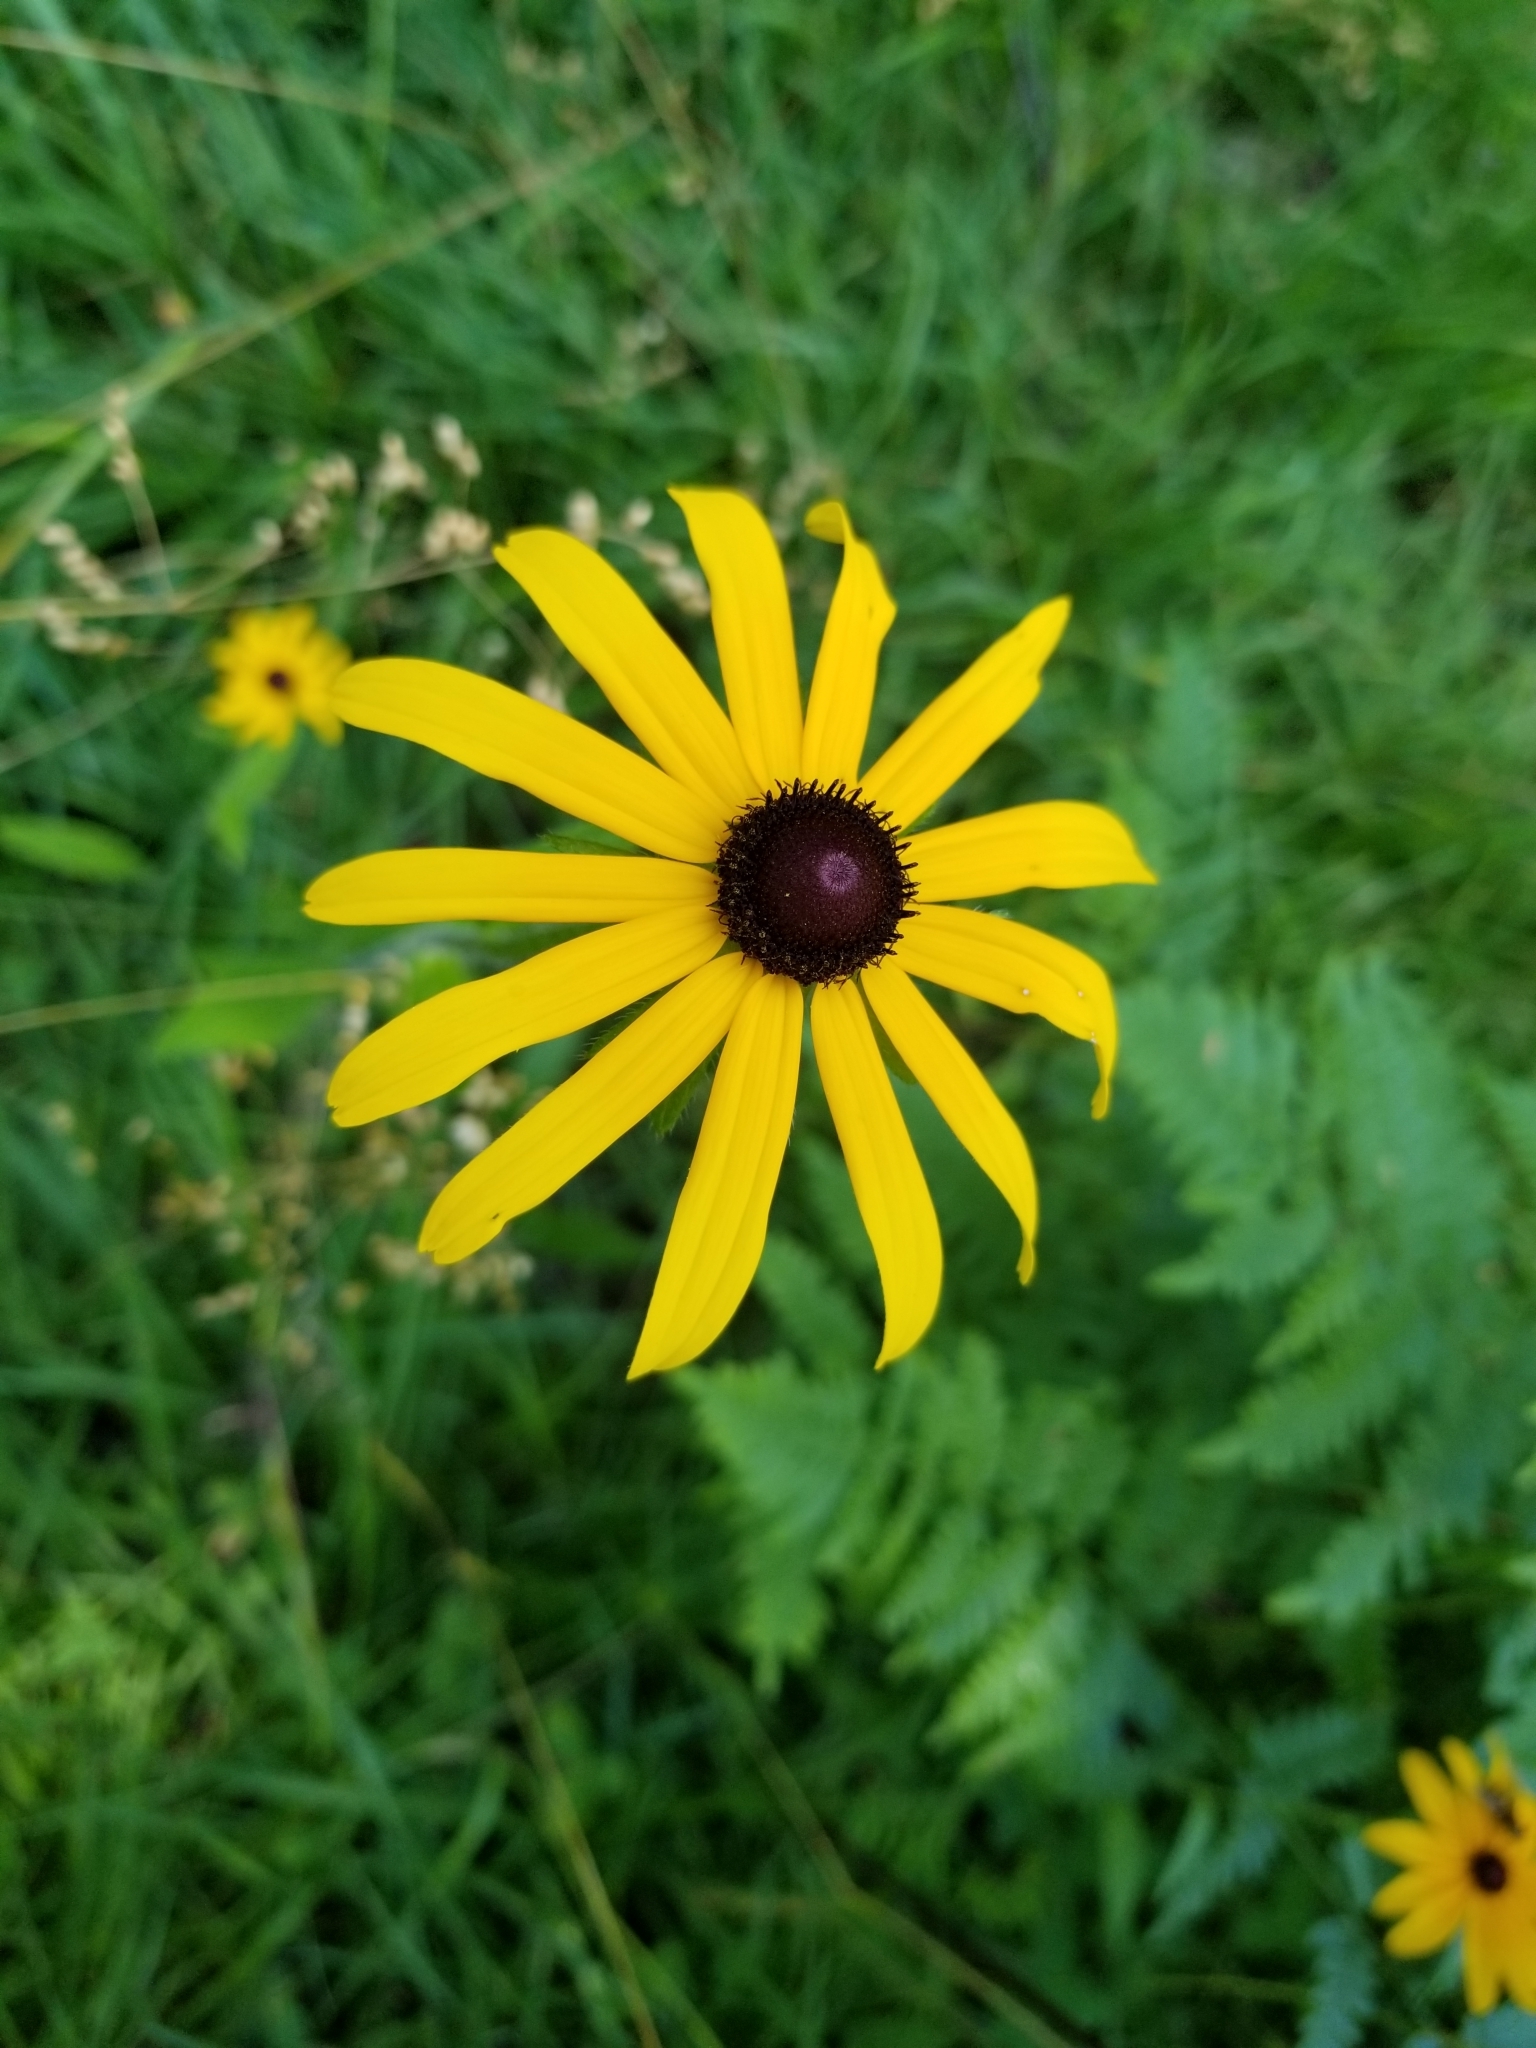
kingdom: Plantae
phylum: Tracheophyta
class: Magnoliopsida
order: Asterales
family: Asteraceae
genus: Rudbeckia
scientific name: Rudbeckia hirta
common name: Black-eyed-susan
